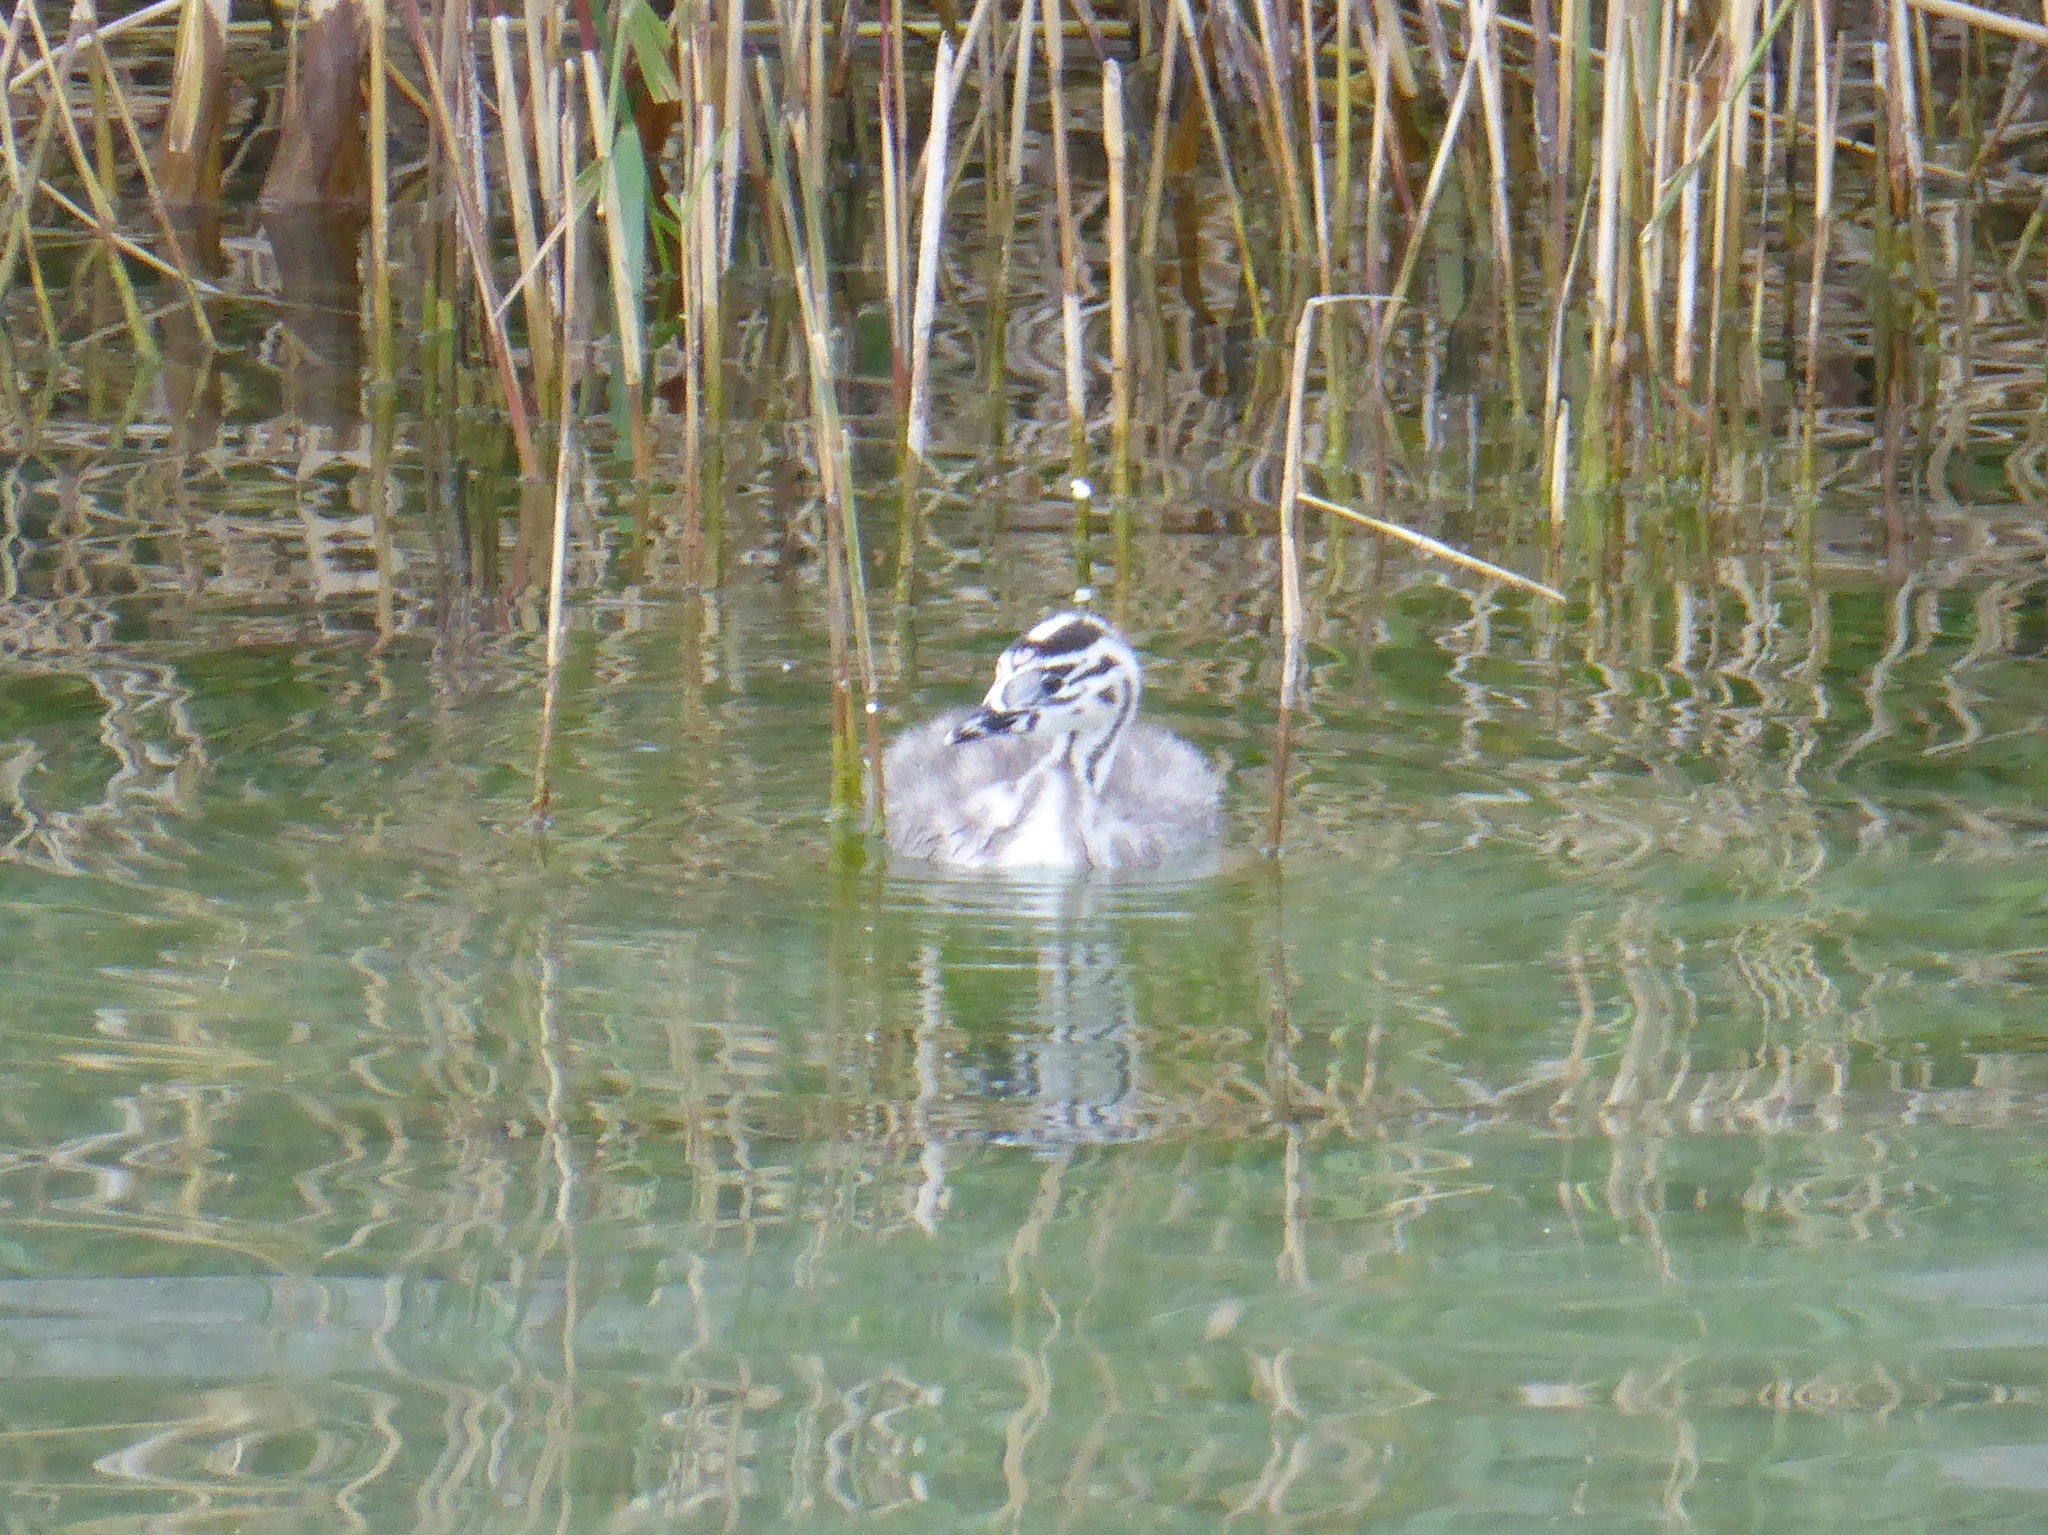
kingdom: Animalia
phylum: Chordata
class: Aves
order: Podicipediformes
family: Podicipedidae
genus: Podiceps
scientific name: Podiceps cristatus
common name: Great crested grebe
